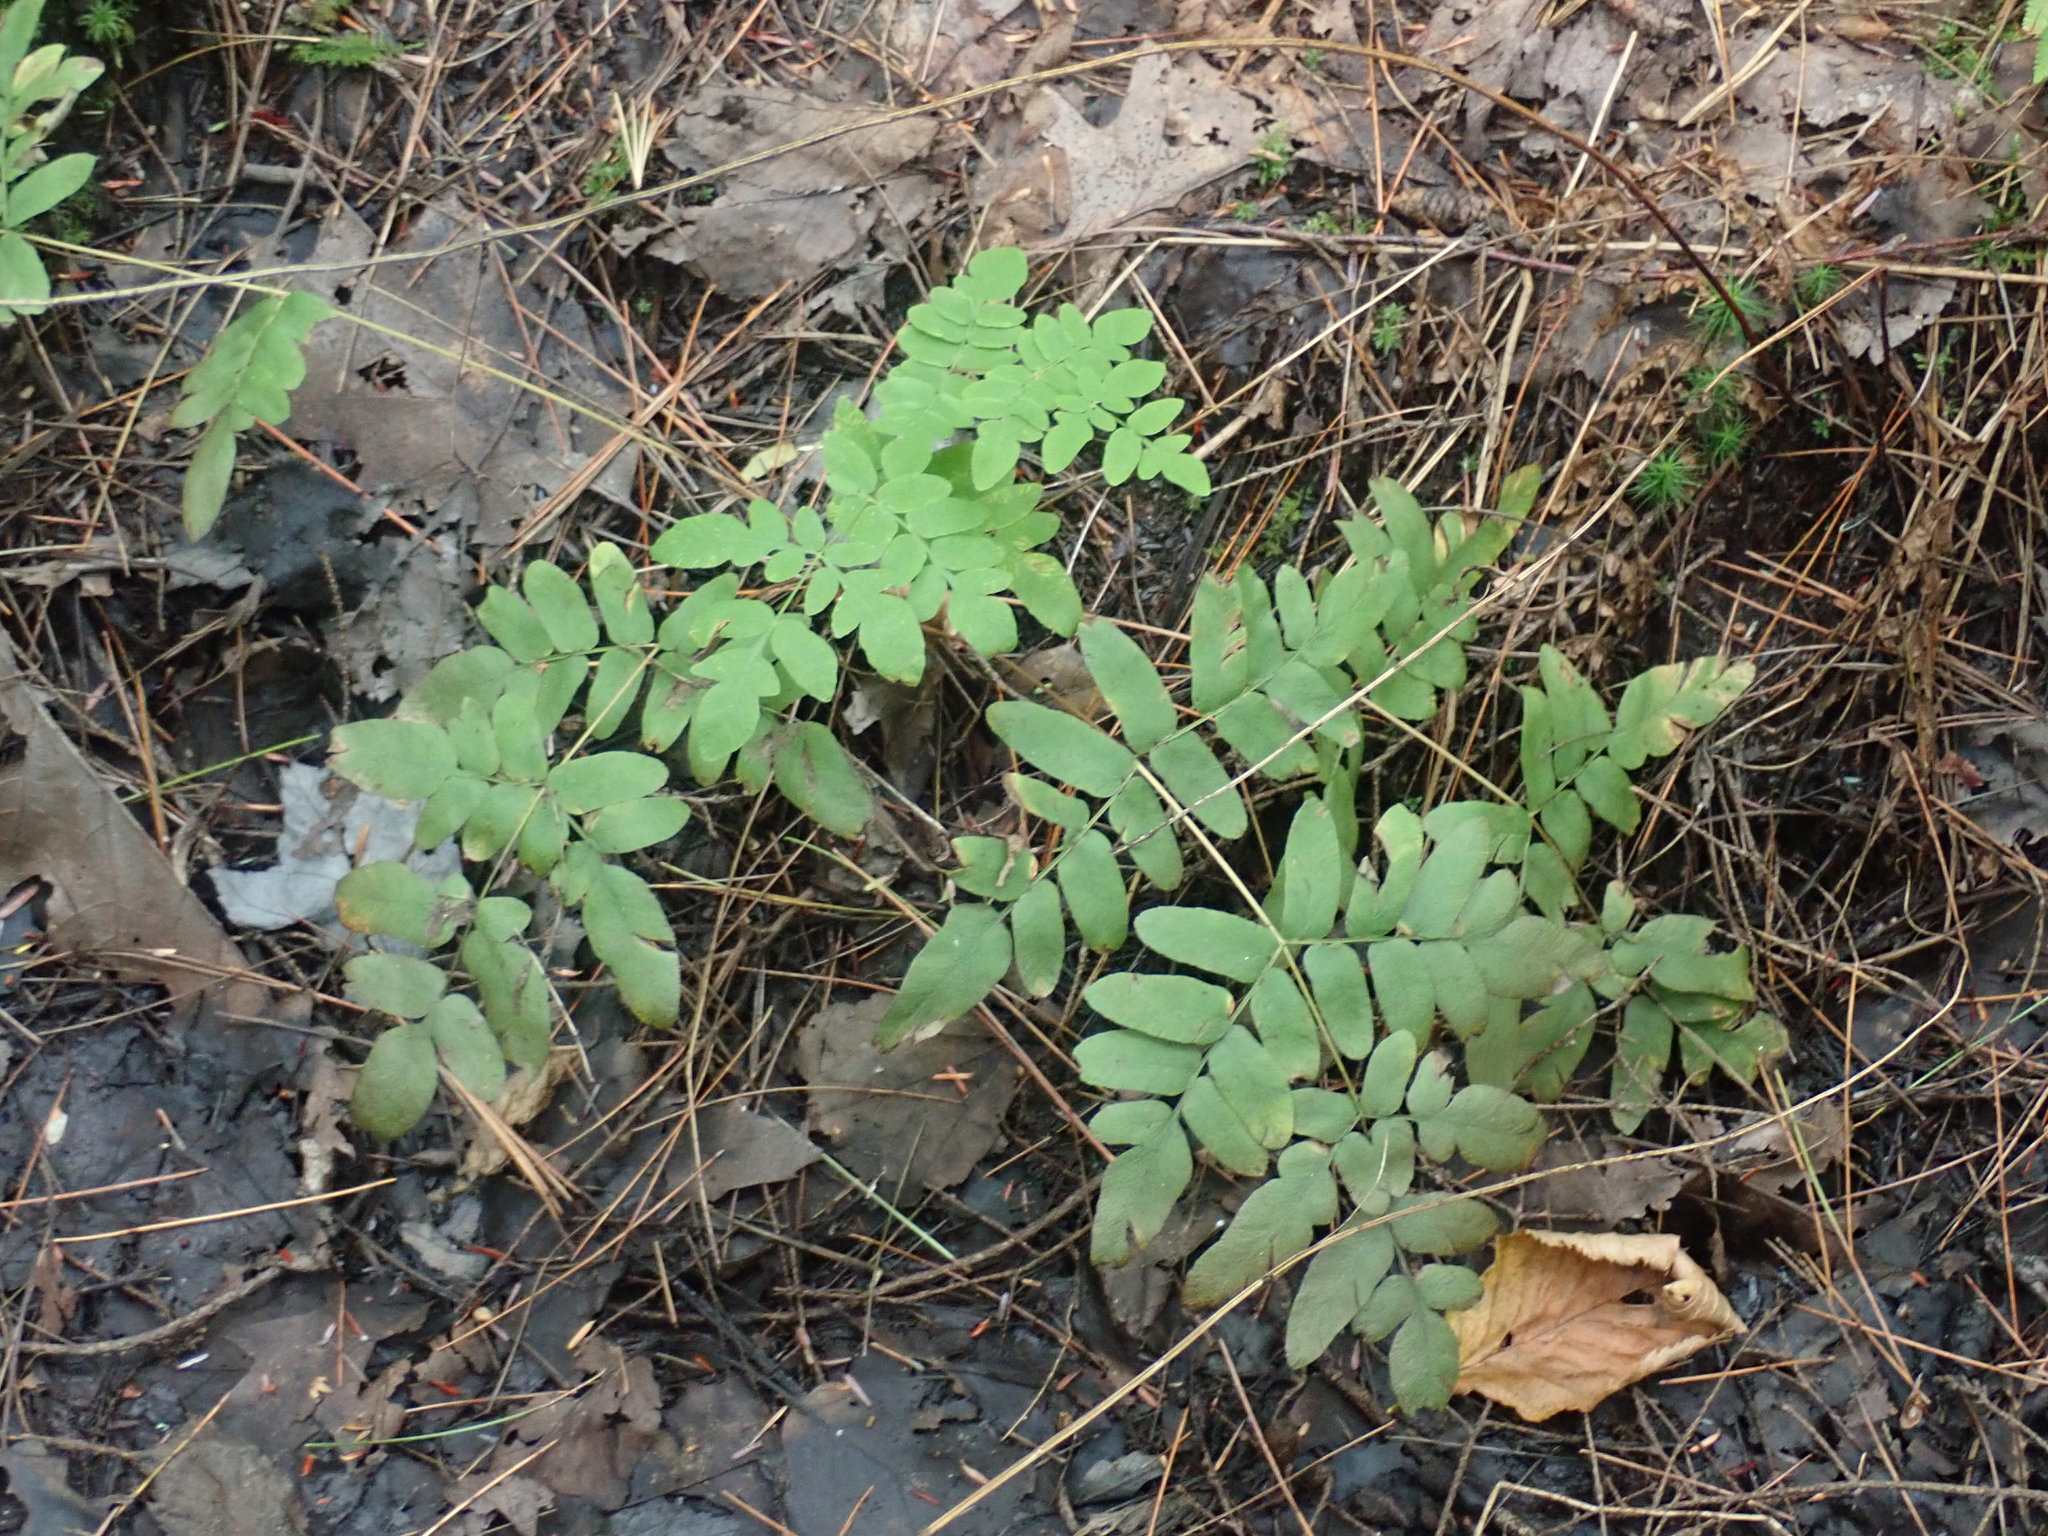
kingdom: Plantae
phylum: Tracheophyta
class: Polypodiopsida
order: Osmundales
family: Osmundaceae
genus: Osmunda
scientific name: Osmunda spectabilis
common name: American royal fern
